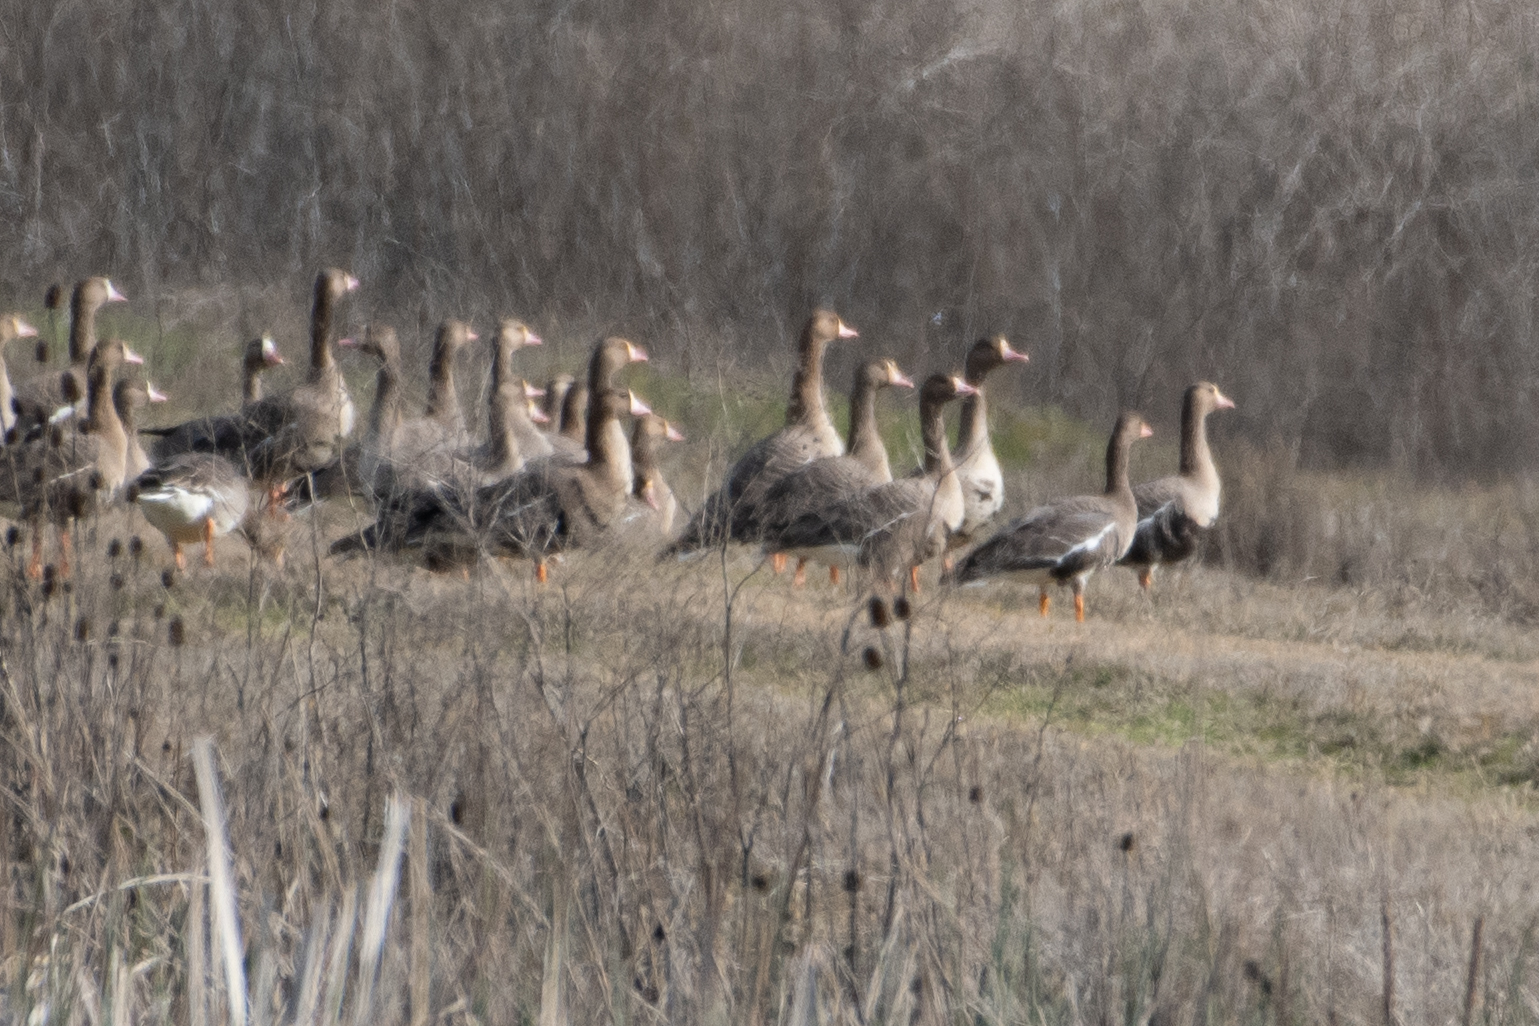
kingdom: Animalia
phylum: Chordata
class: Aves
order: Anseriformes
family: Anatidae
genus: Anser
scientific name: Anser albifrons
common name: Greater white-fronted goose
